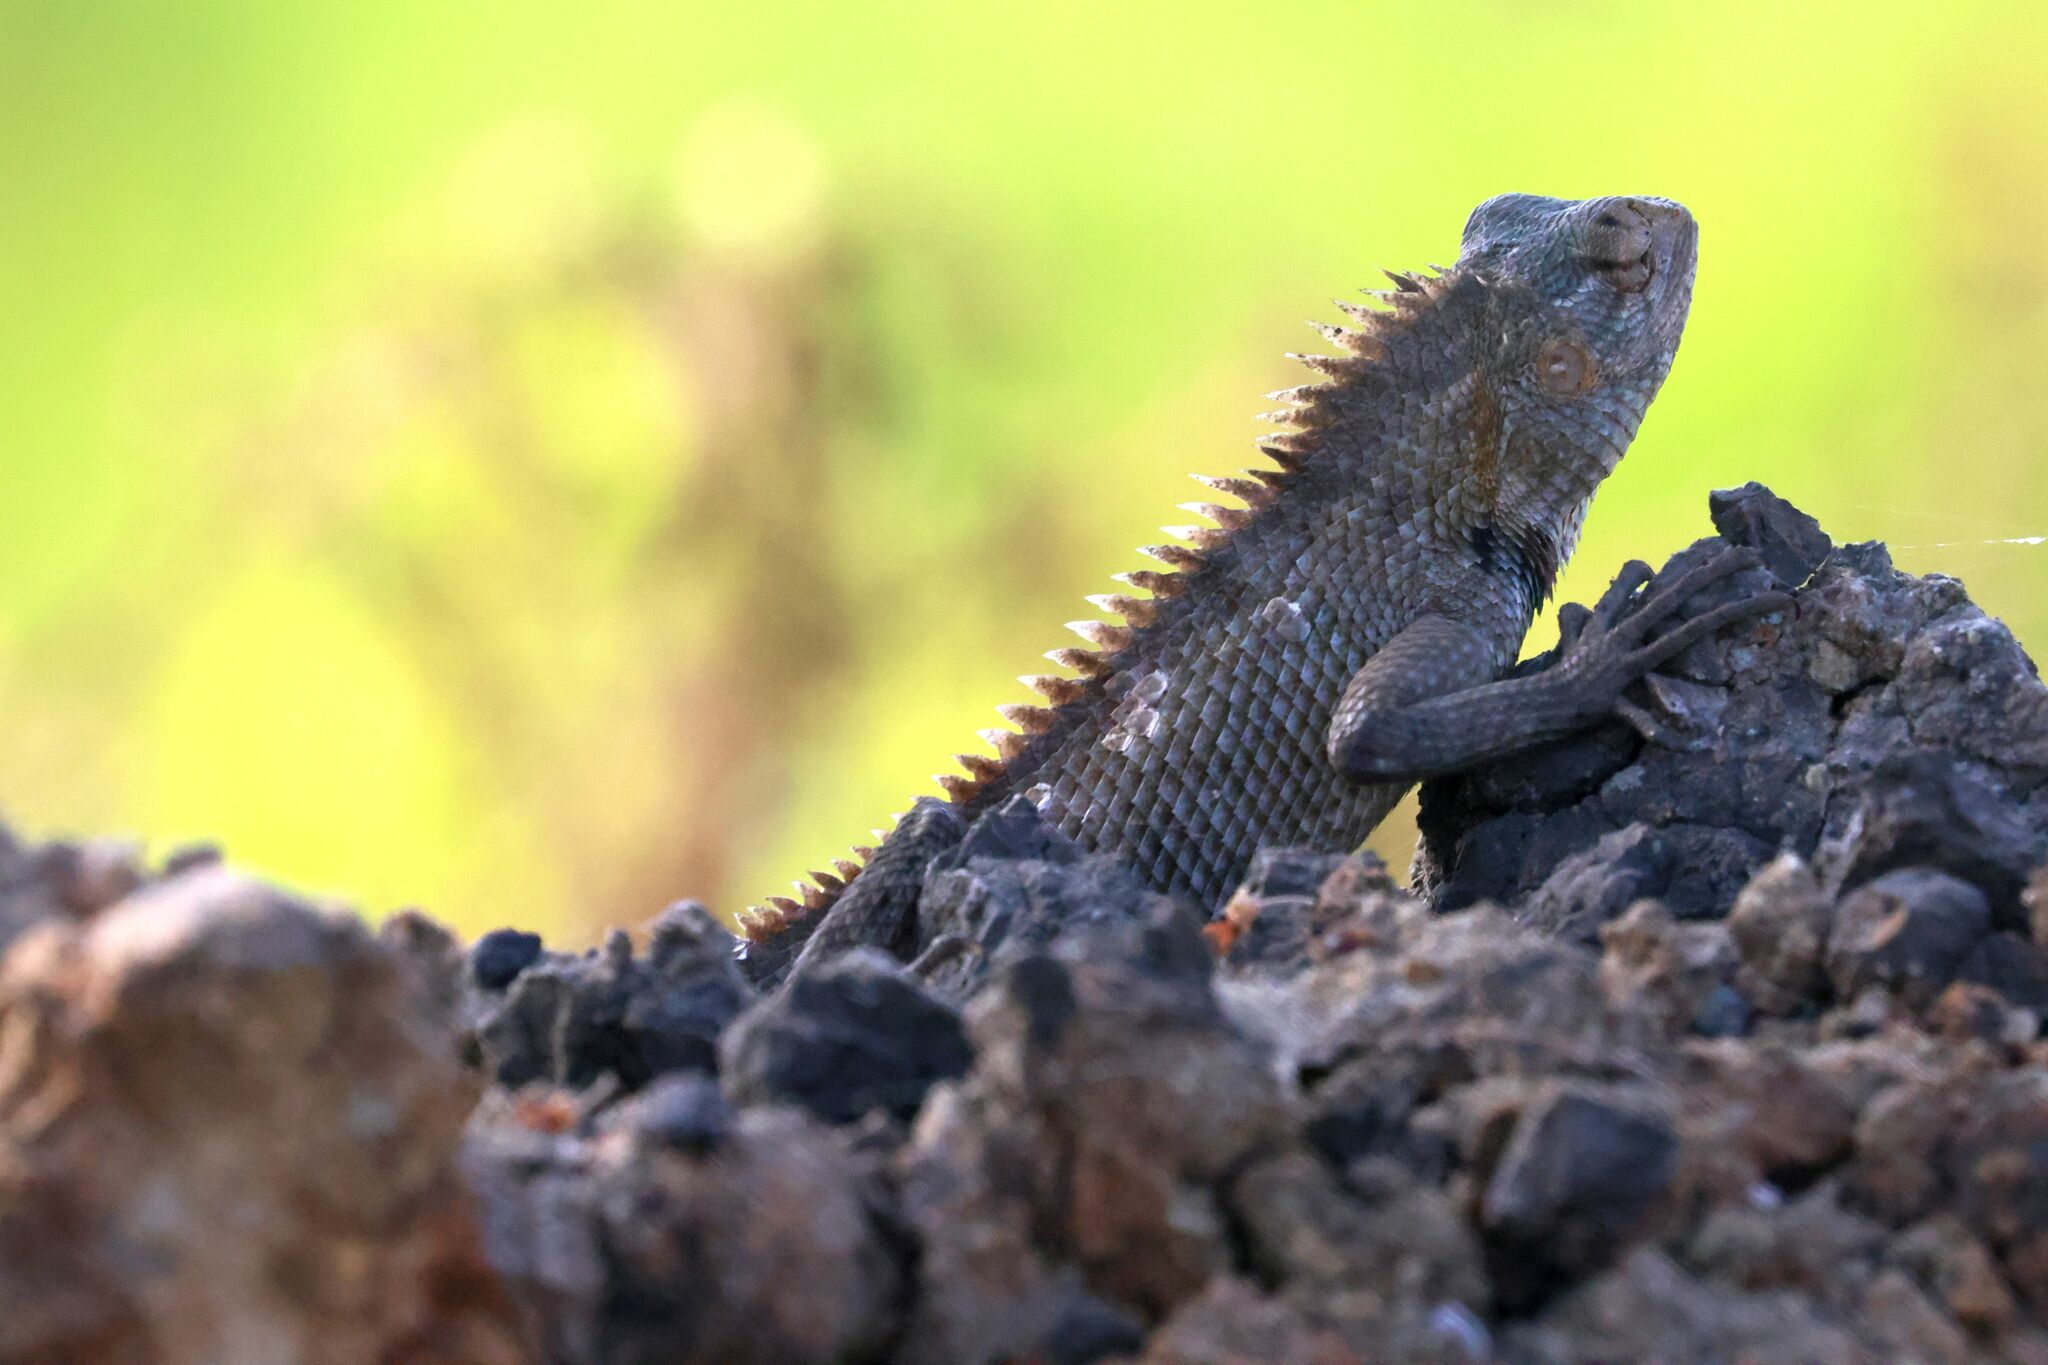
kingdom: Animalia
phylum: Chordata
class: Squamata
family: Agamidae
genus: Calotes
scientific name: Calotes versicolor
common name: Oriental garden lizard
